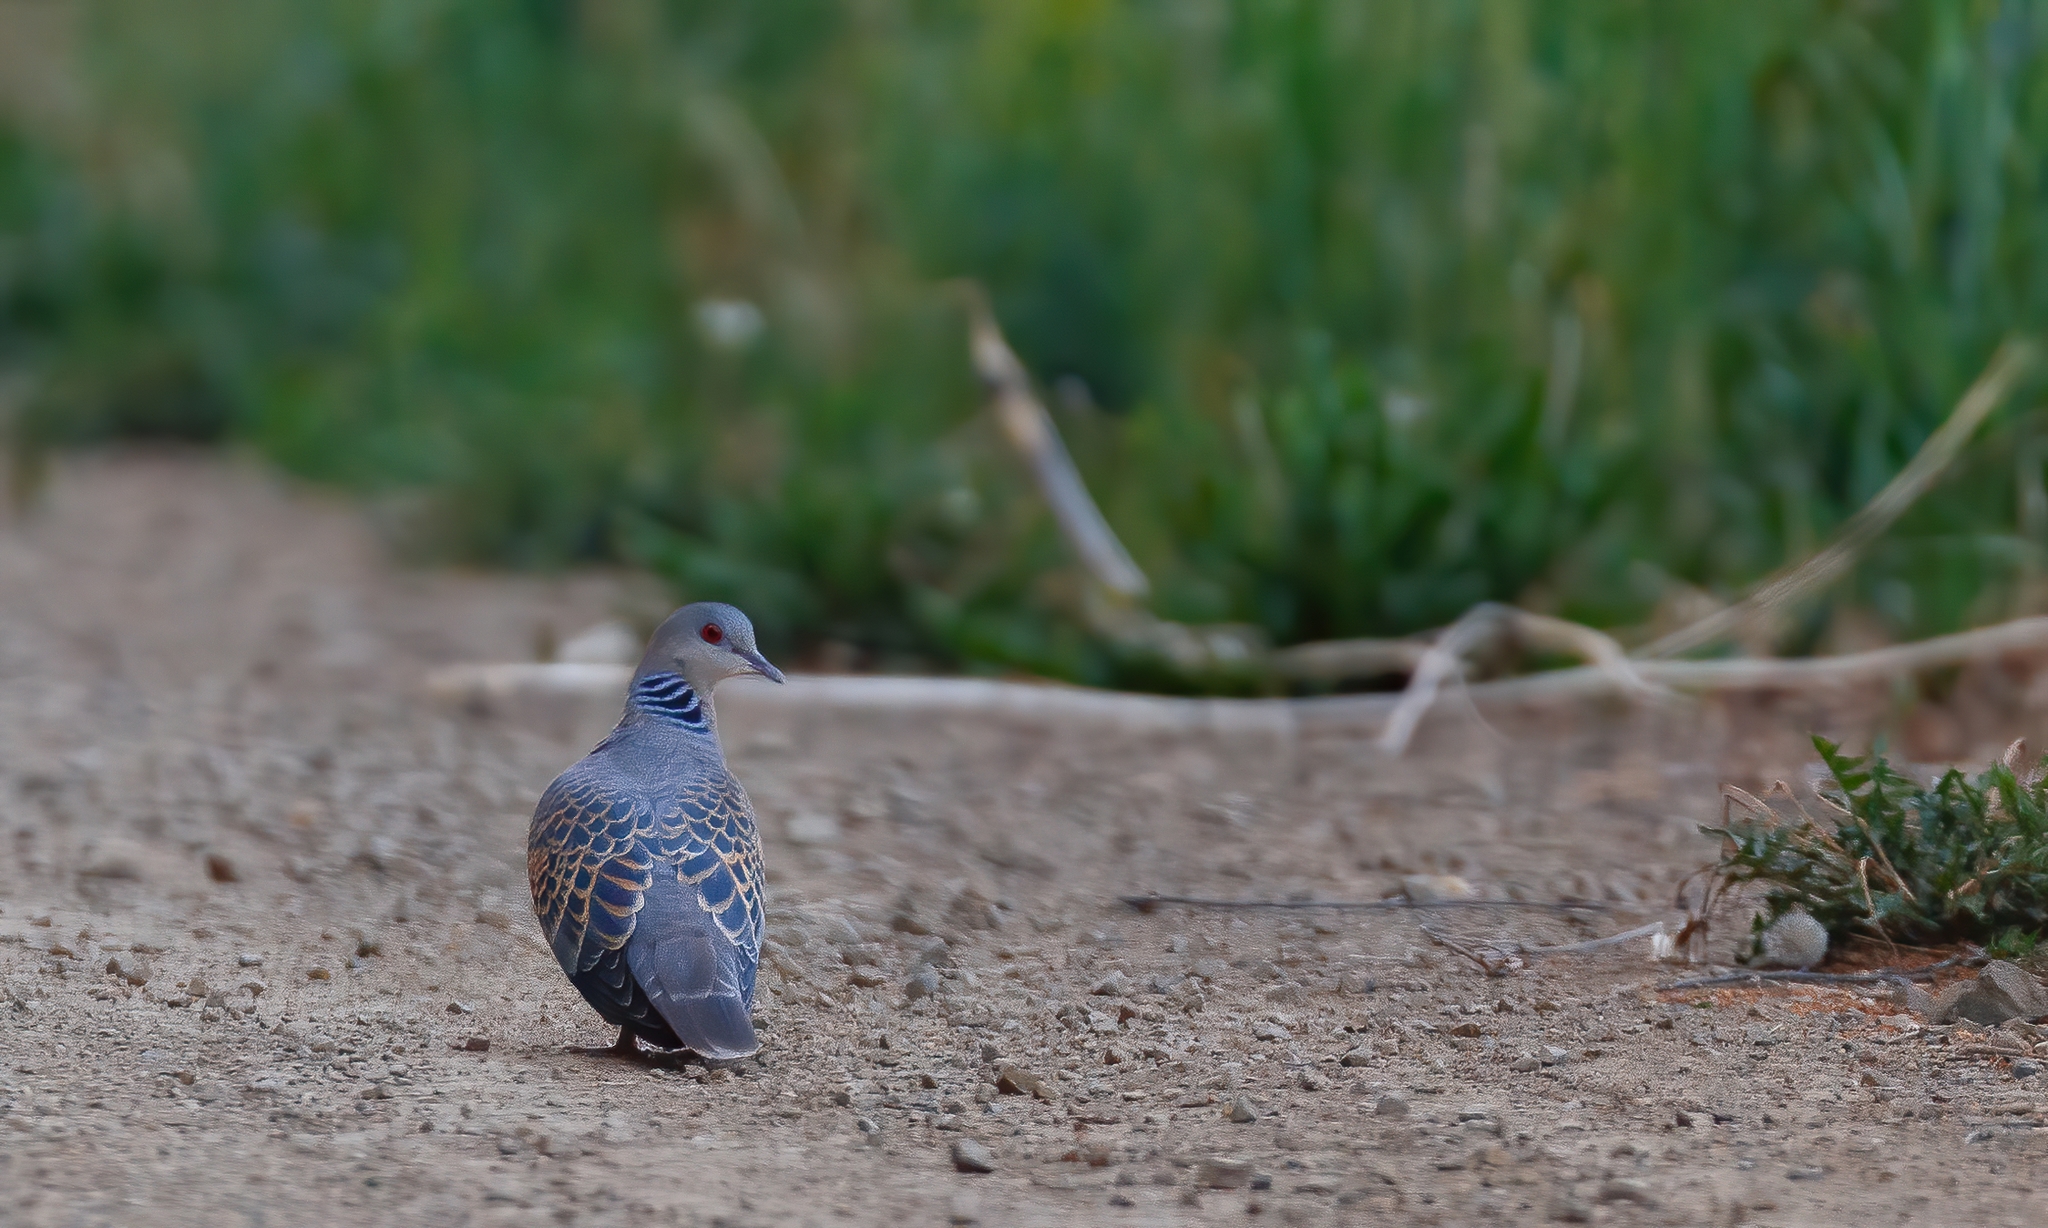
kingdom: Animalia
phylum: Chordata
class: Aves
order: Columbiformes
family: Columbidae
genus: Streptopelia
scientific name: Streptopelia orientalis
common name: Oriental turtle dove
